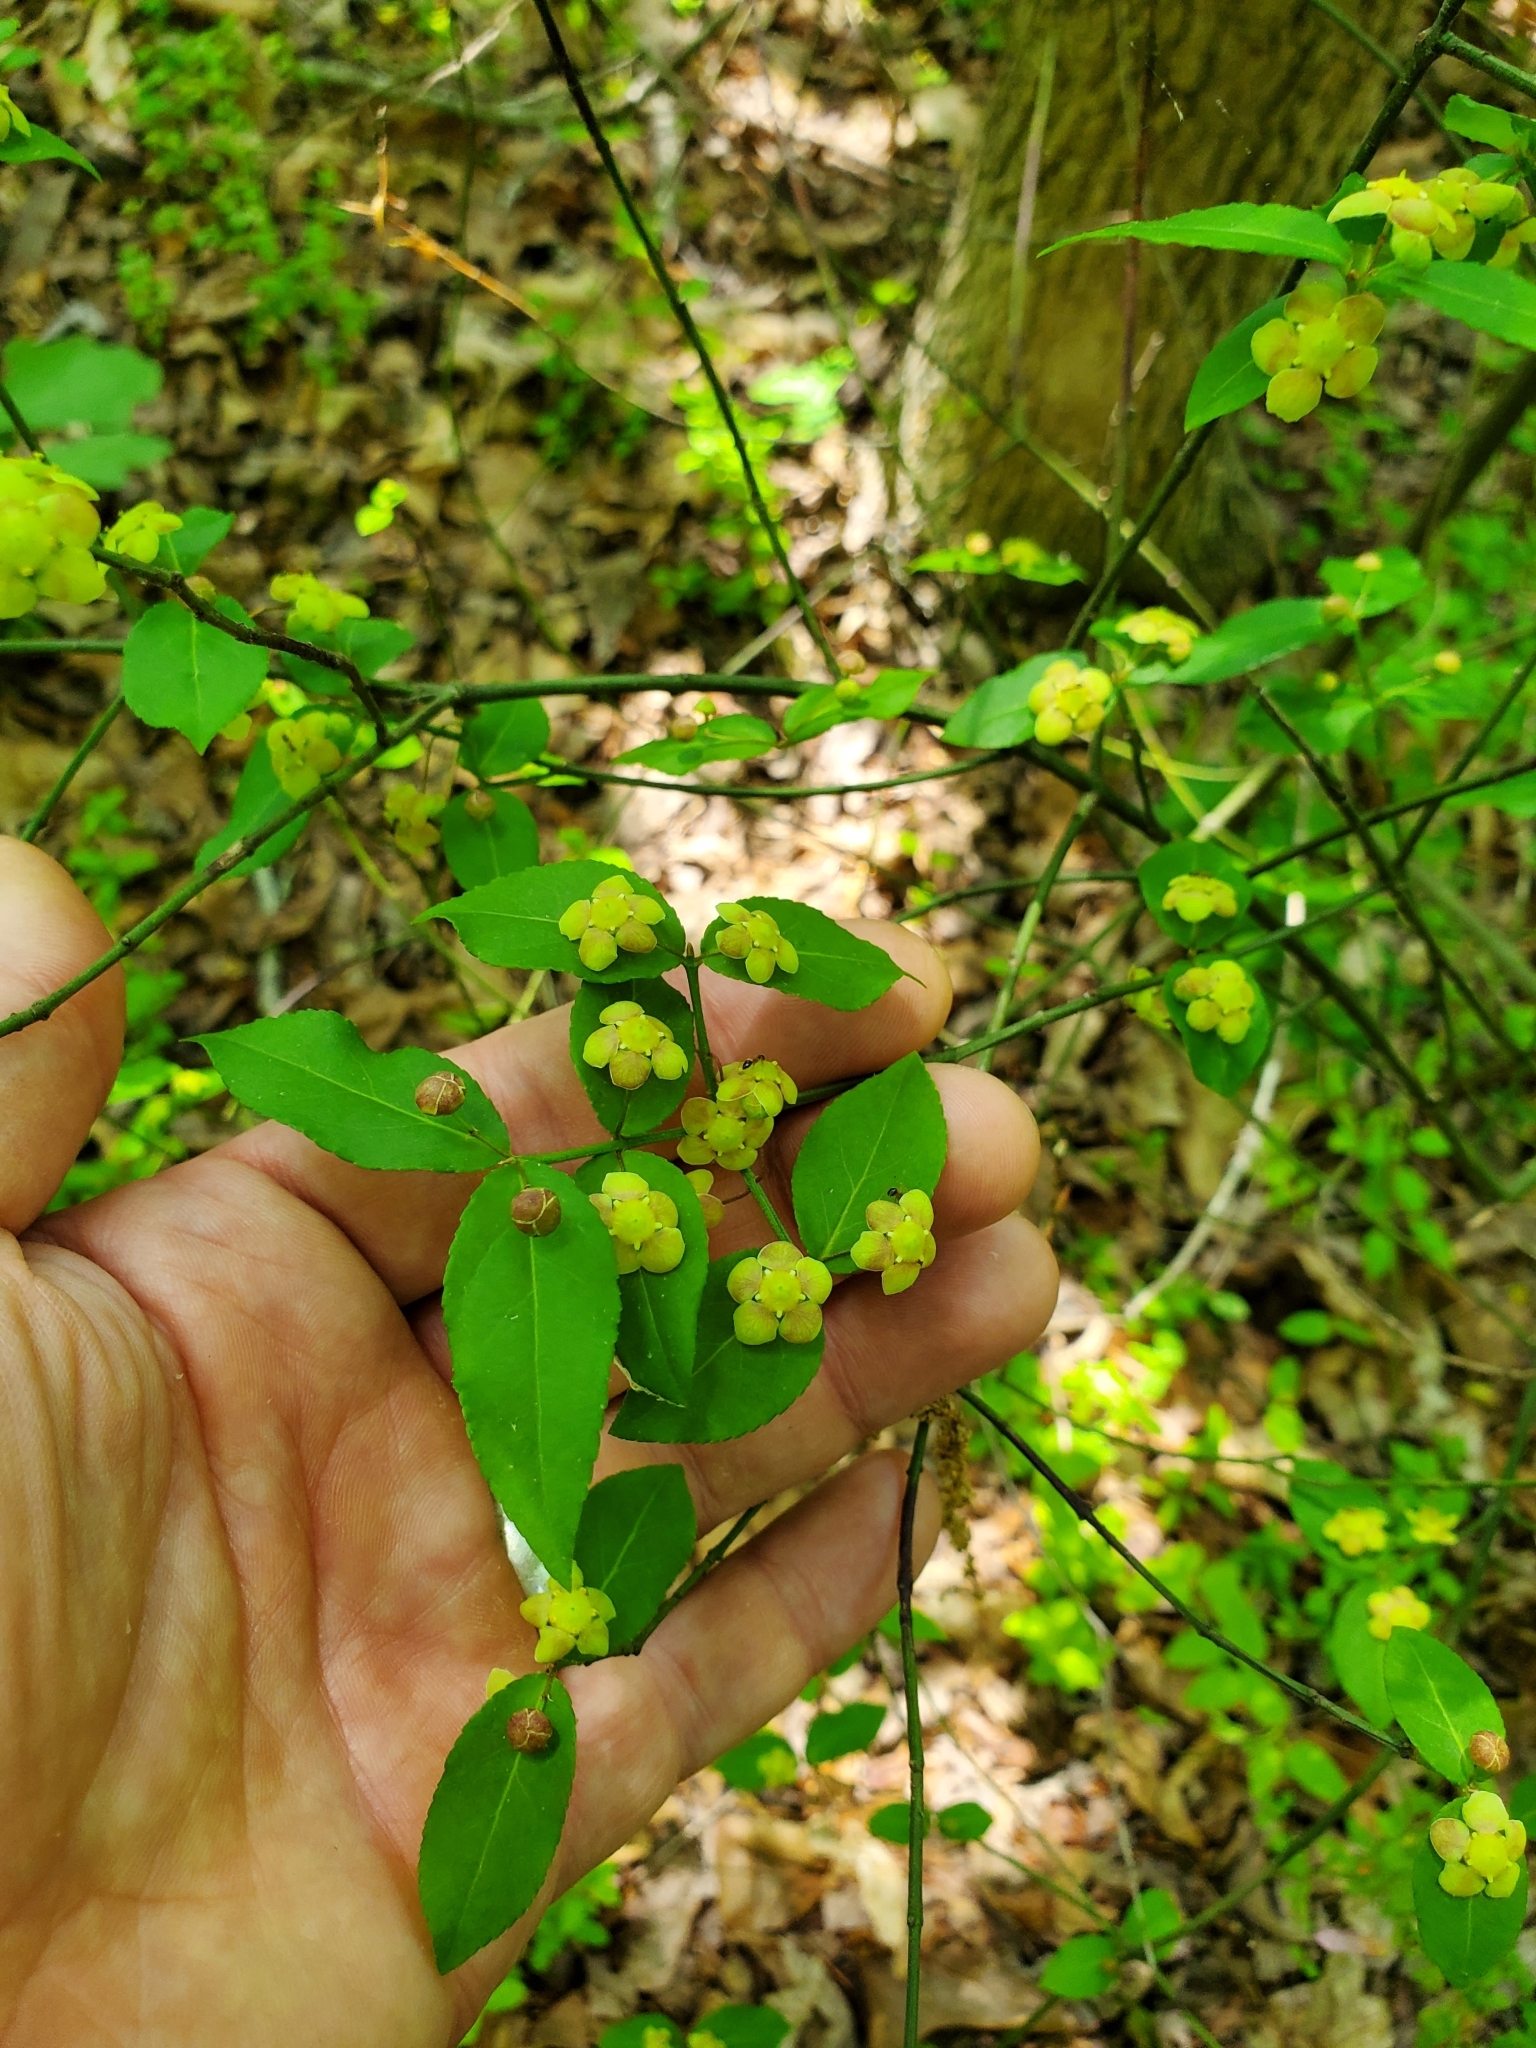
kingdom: Plantae
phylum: Tracheophyta
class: Magnoliopsida
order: Celastrales
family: Celastraceae
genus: Euonymus
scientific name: Euonymus americanus
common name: Bursting-heart
